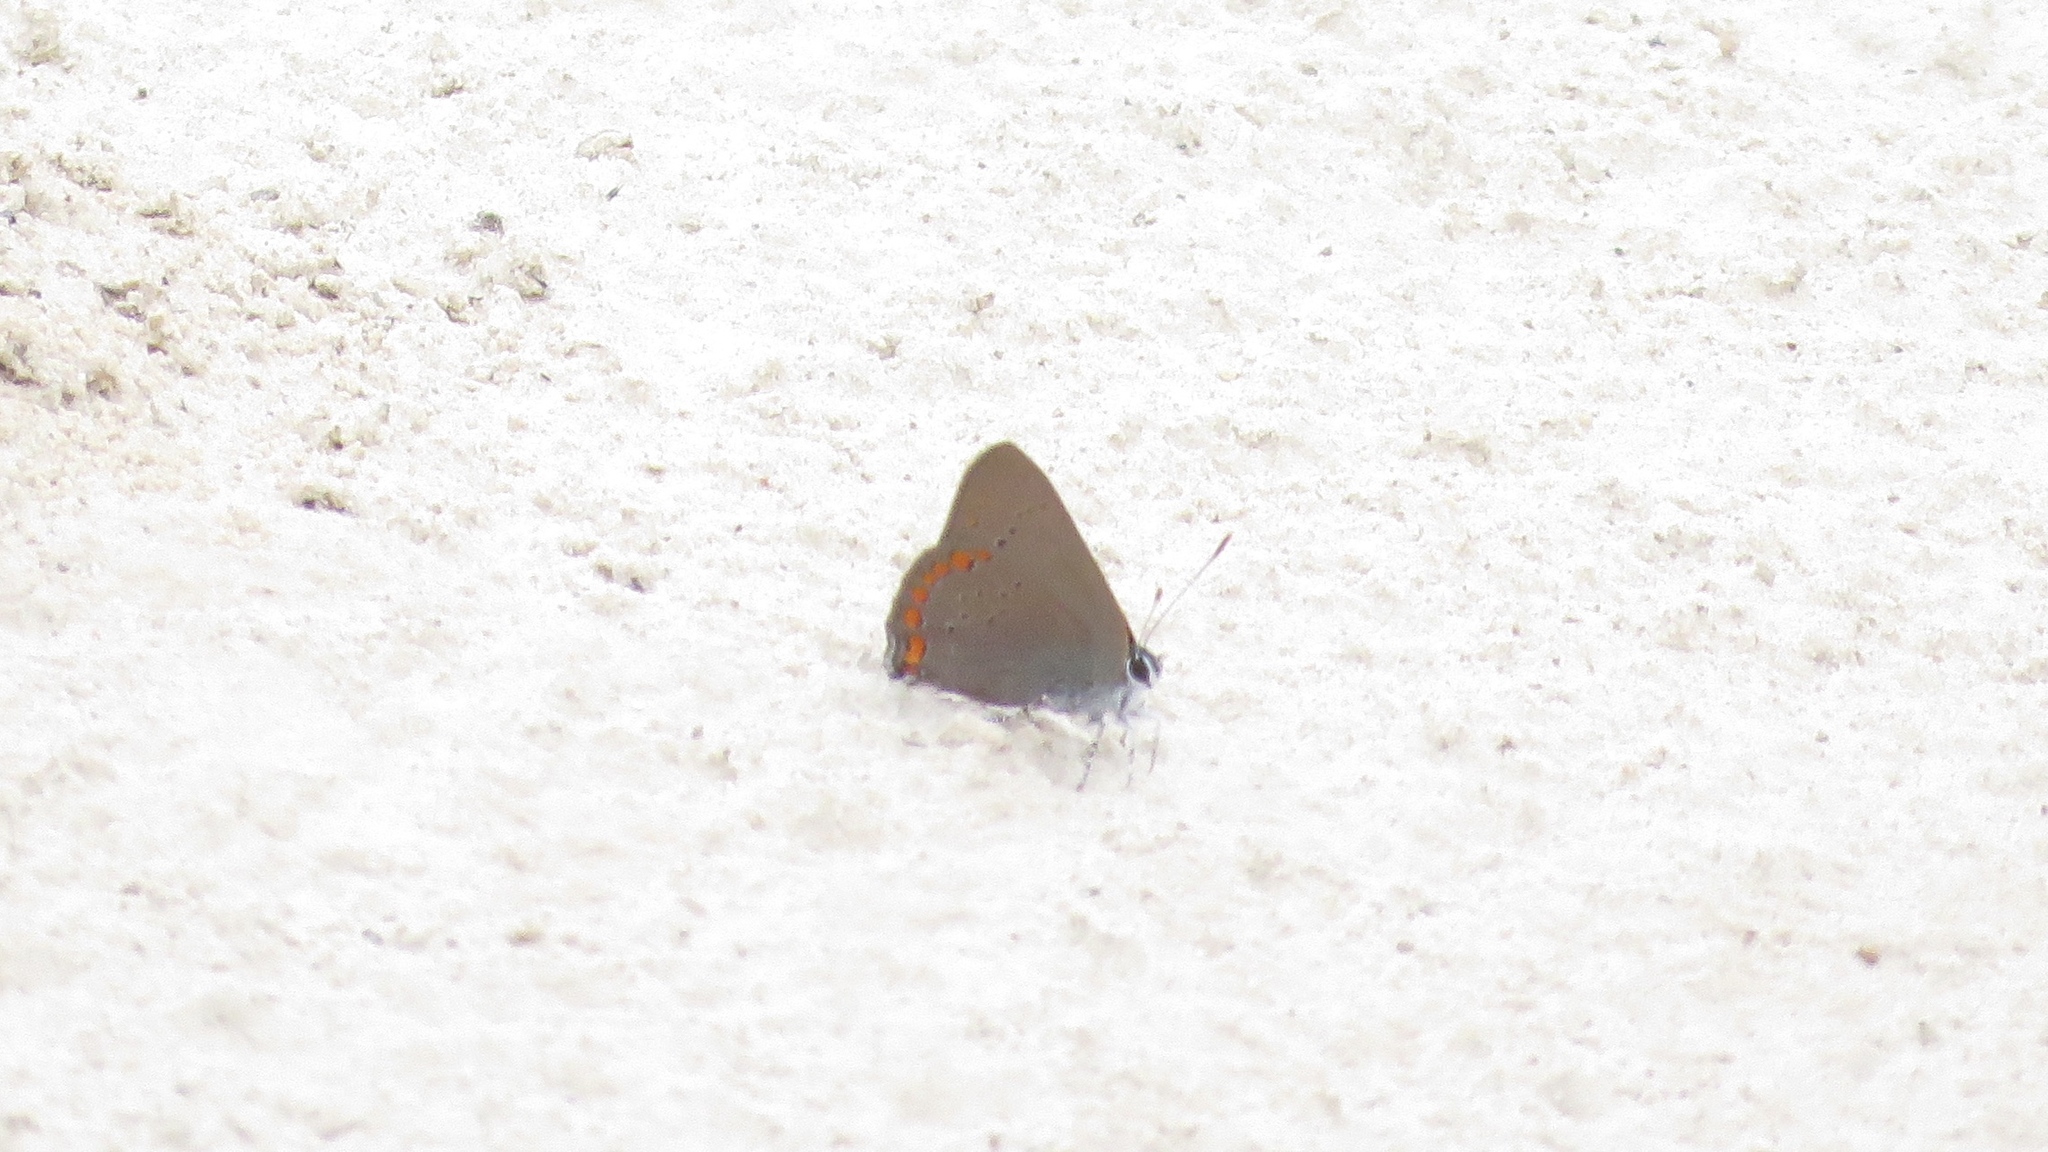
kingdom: Animalia
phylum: Arthropoda
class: Insecta
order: Lepidoptera
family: Lycaenidae
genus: Harkenclenus
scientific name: Harkenclenus titus
